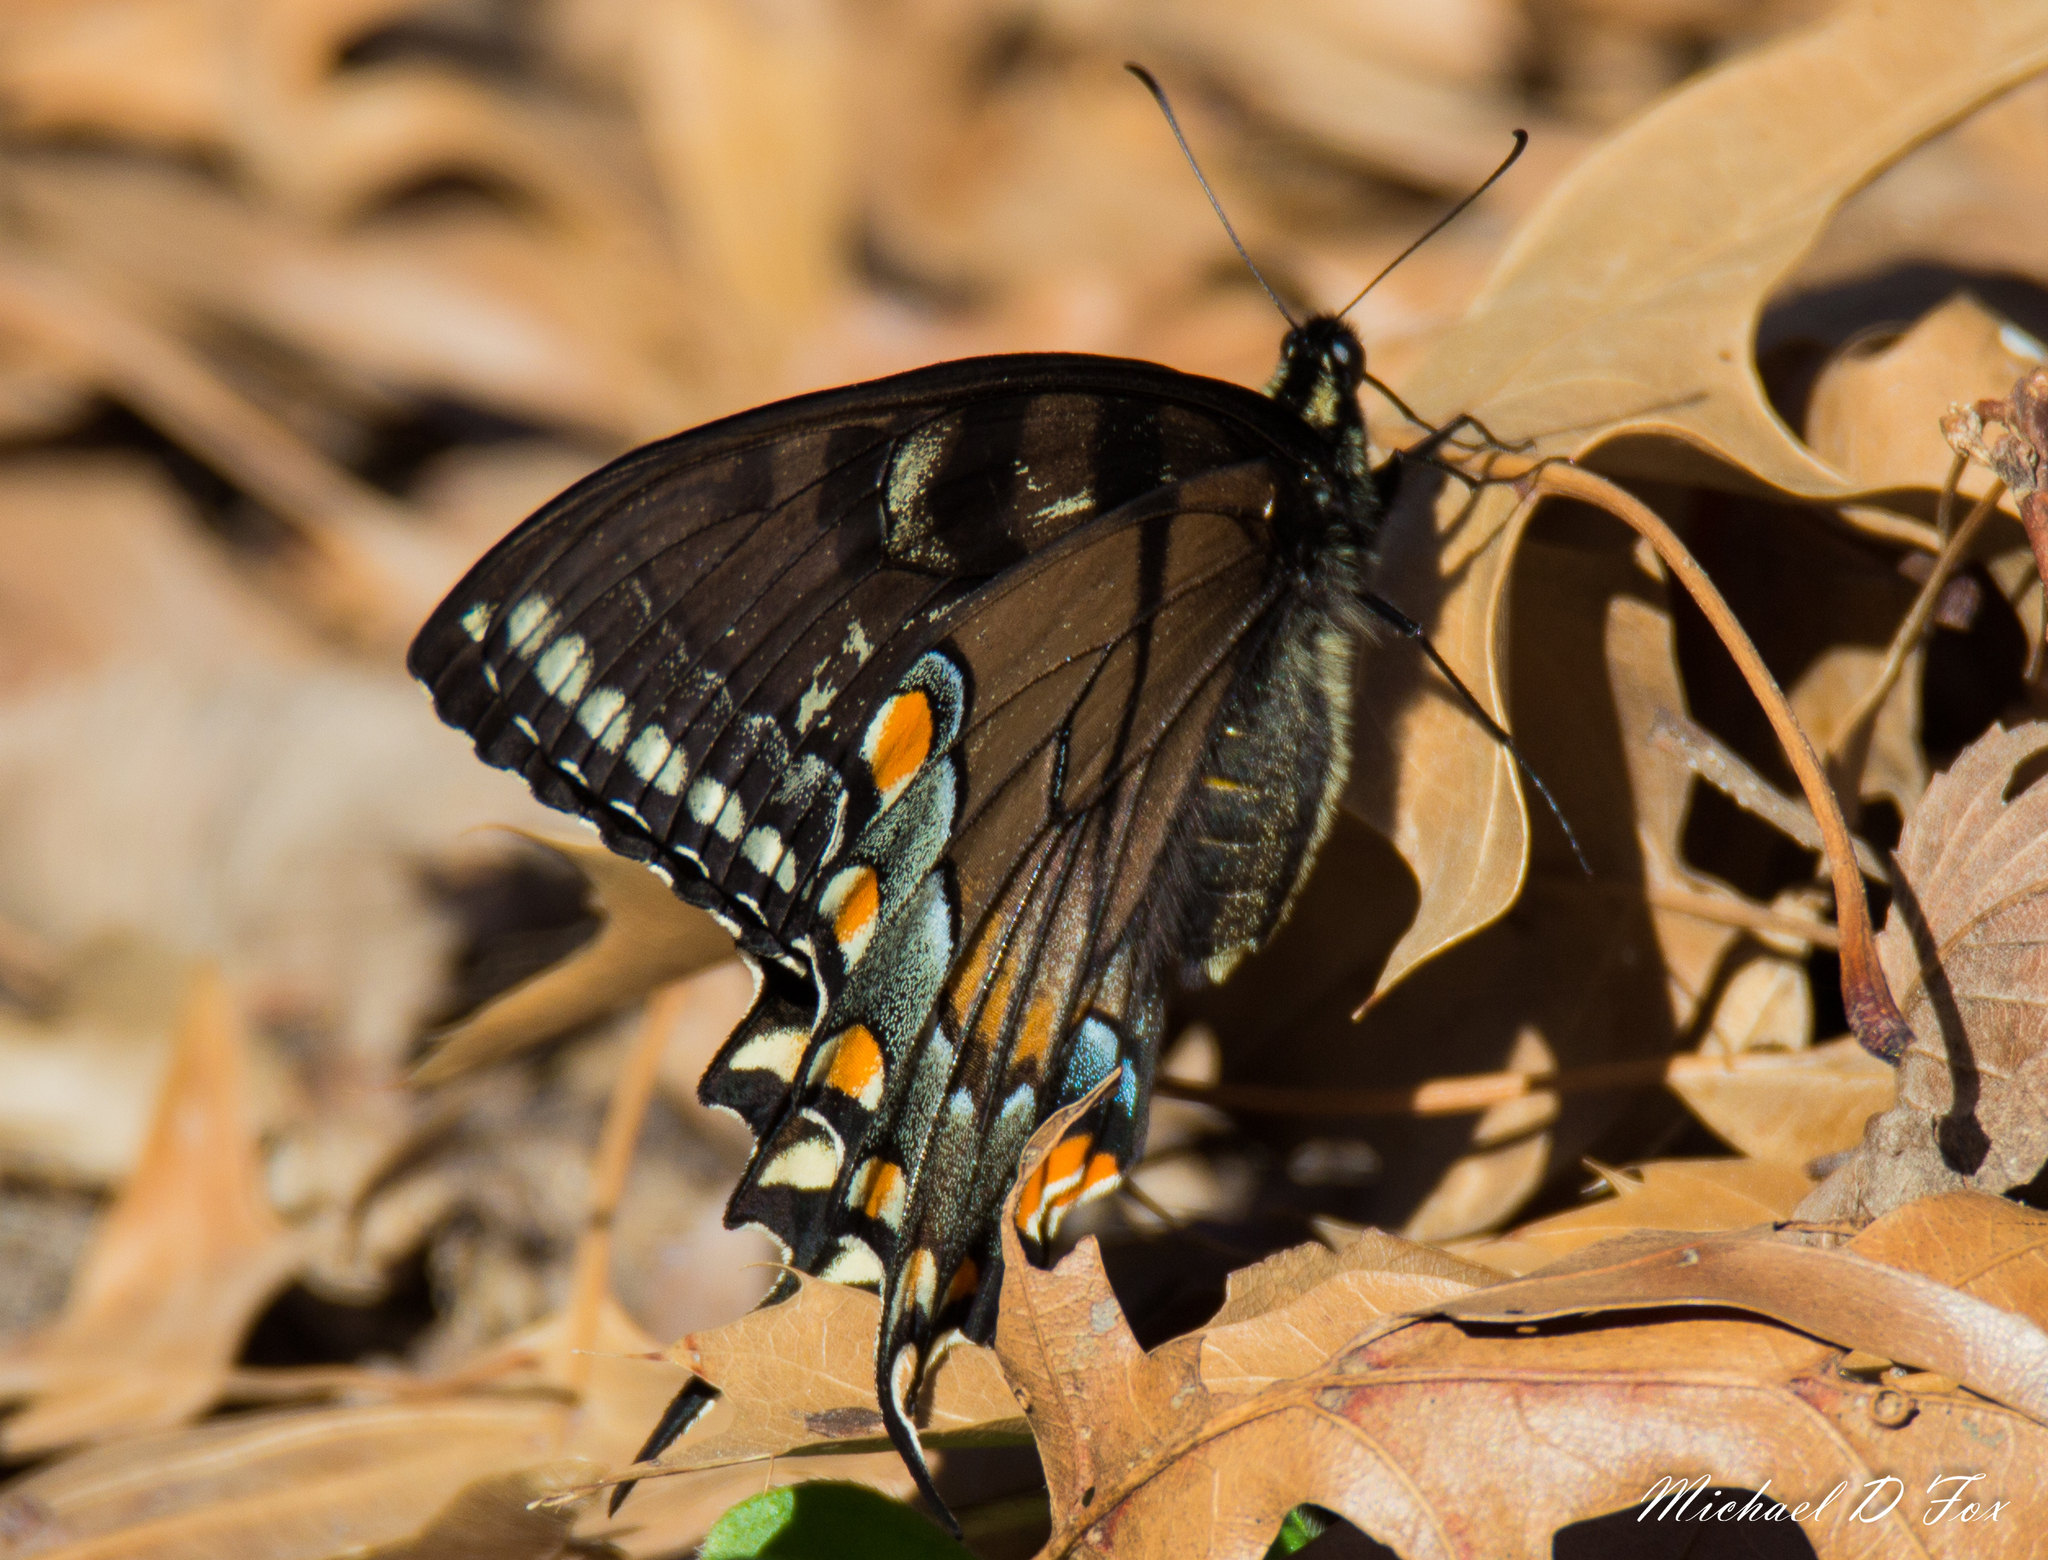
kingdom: Animalia
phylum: Arthropoda
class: Insecta
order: Lepidoptera
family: Papilionidae
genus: Papilio
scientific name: Papilio glaucus
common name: Tiger swallowtail
